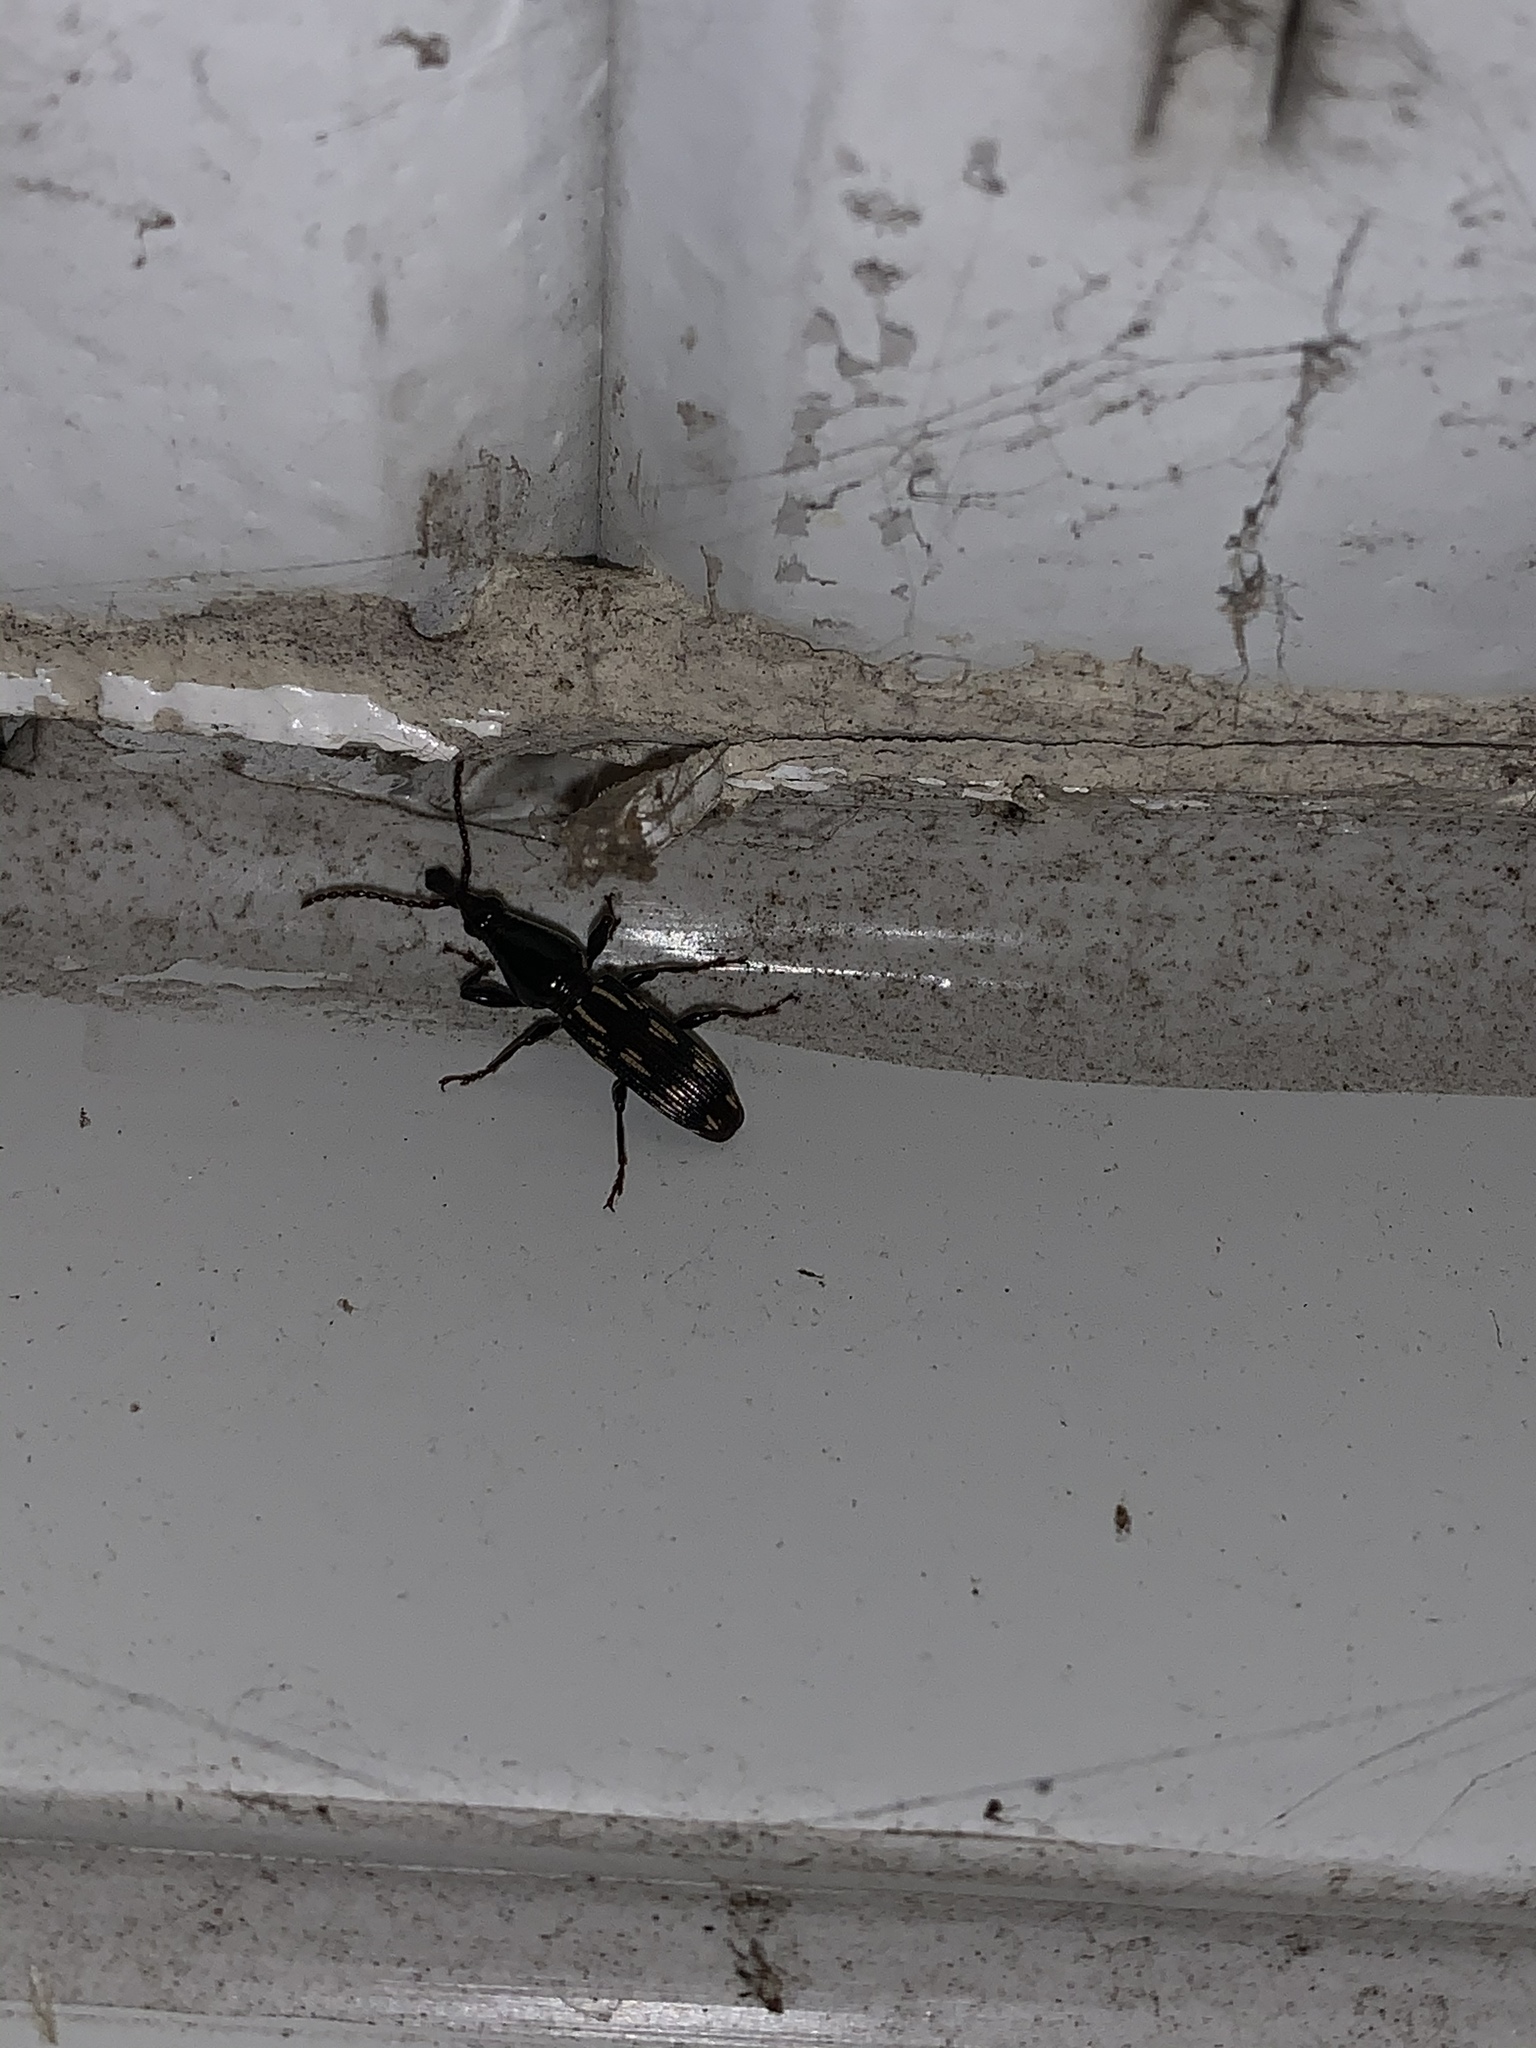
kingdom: Animalia
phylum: Arthropoda
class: Insecta
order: Coleoptera
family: Brentidae
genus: Arrenodes
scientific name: Arrenodes minutus
